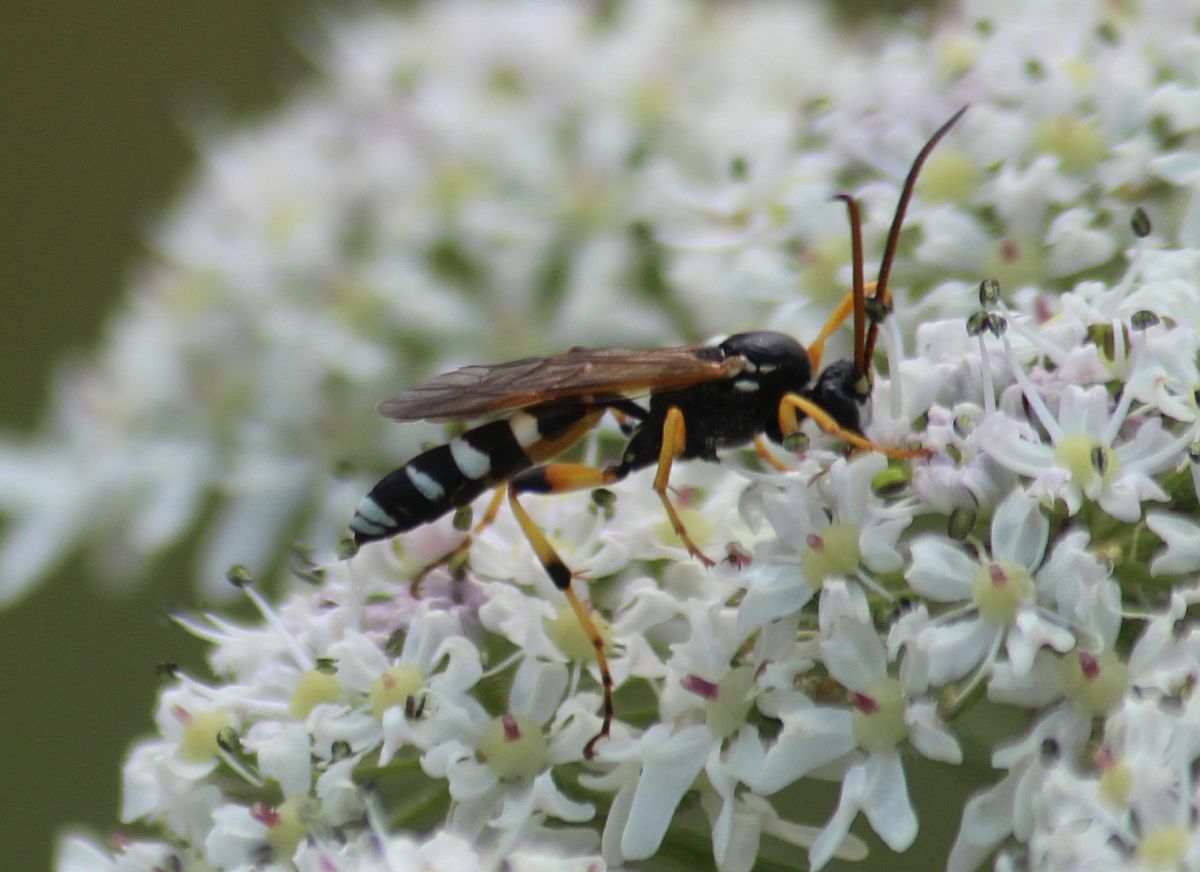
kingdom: Animalia
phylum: Arthropoda
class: Insecta
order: Hymenoptera
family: Ichneumonidae
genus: Ichneumon
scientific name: Ichneumon sarcitorius
